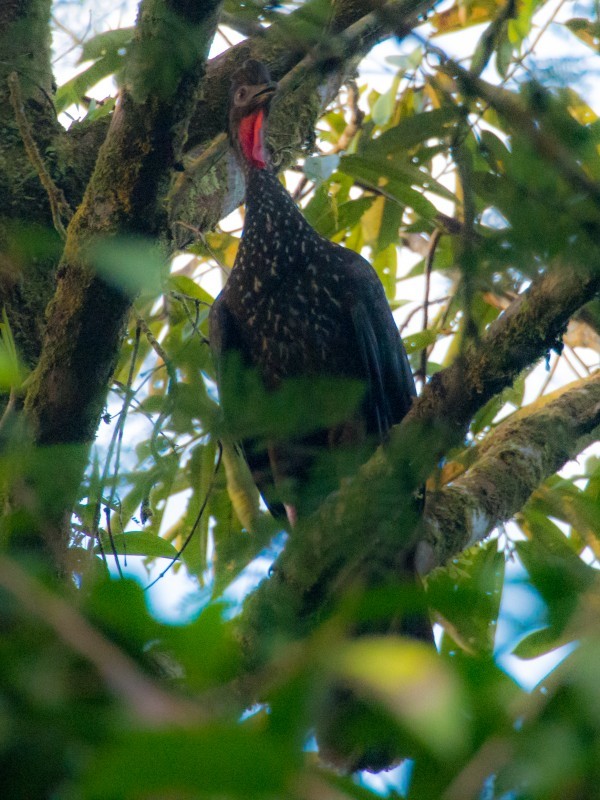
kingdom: Animalia
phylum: Chordata
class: Aves
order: Galliformes
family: Cracidae
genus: Penelope
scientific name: Penelope purpurascens
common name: Crested guan
